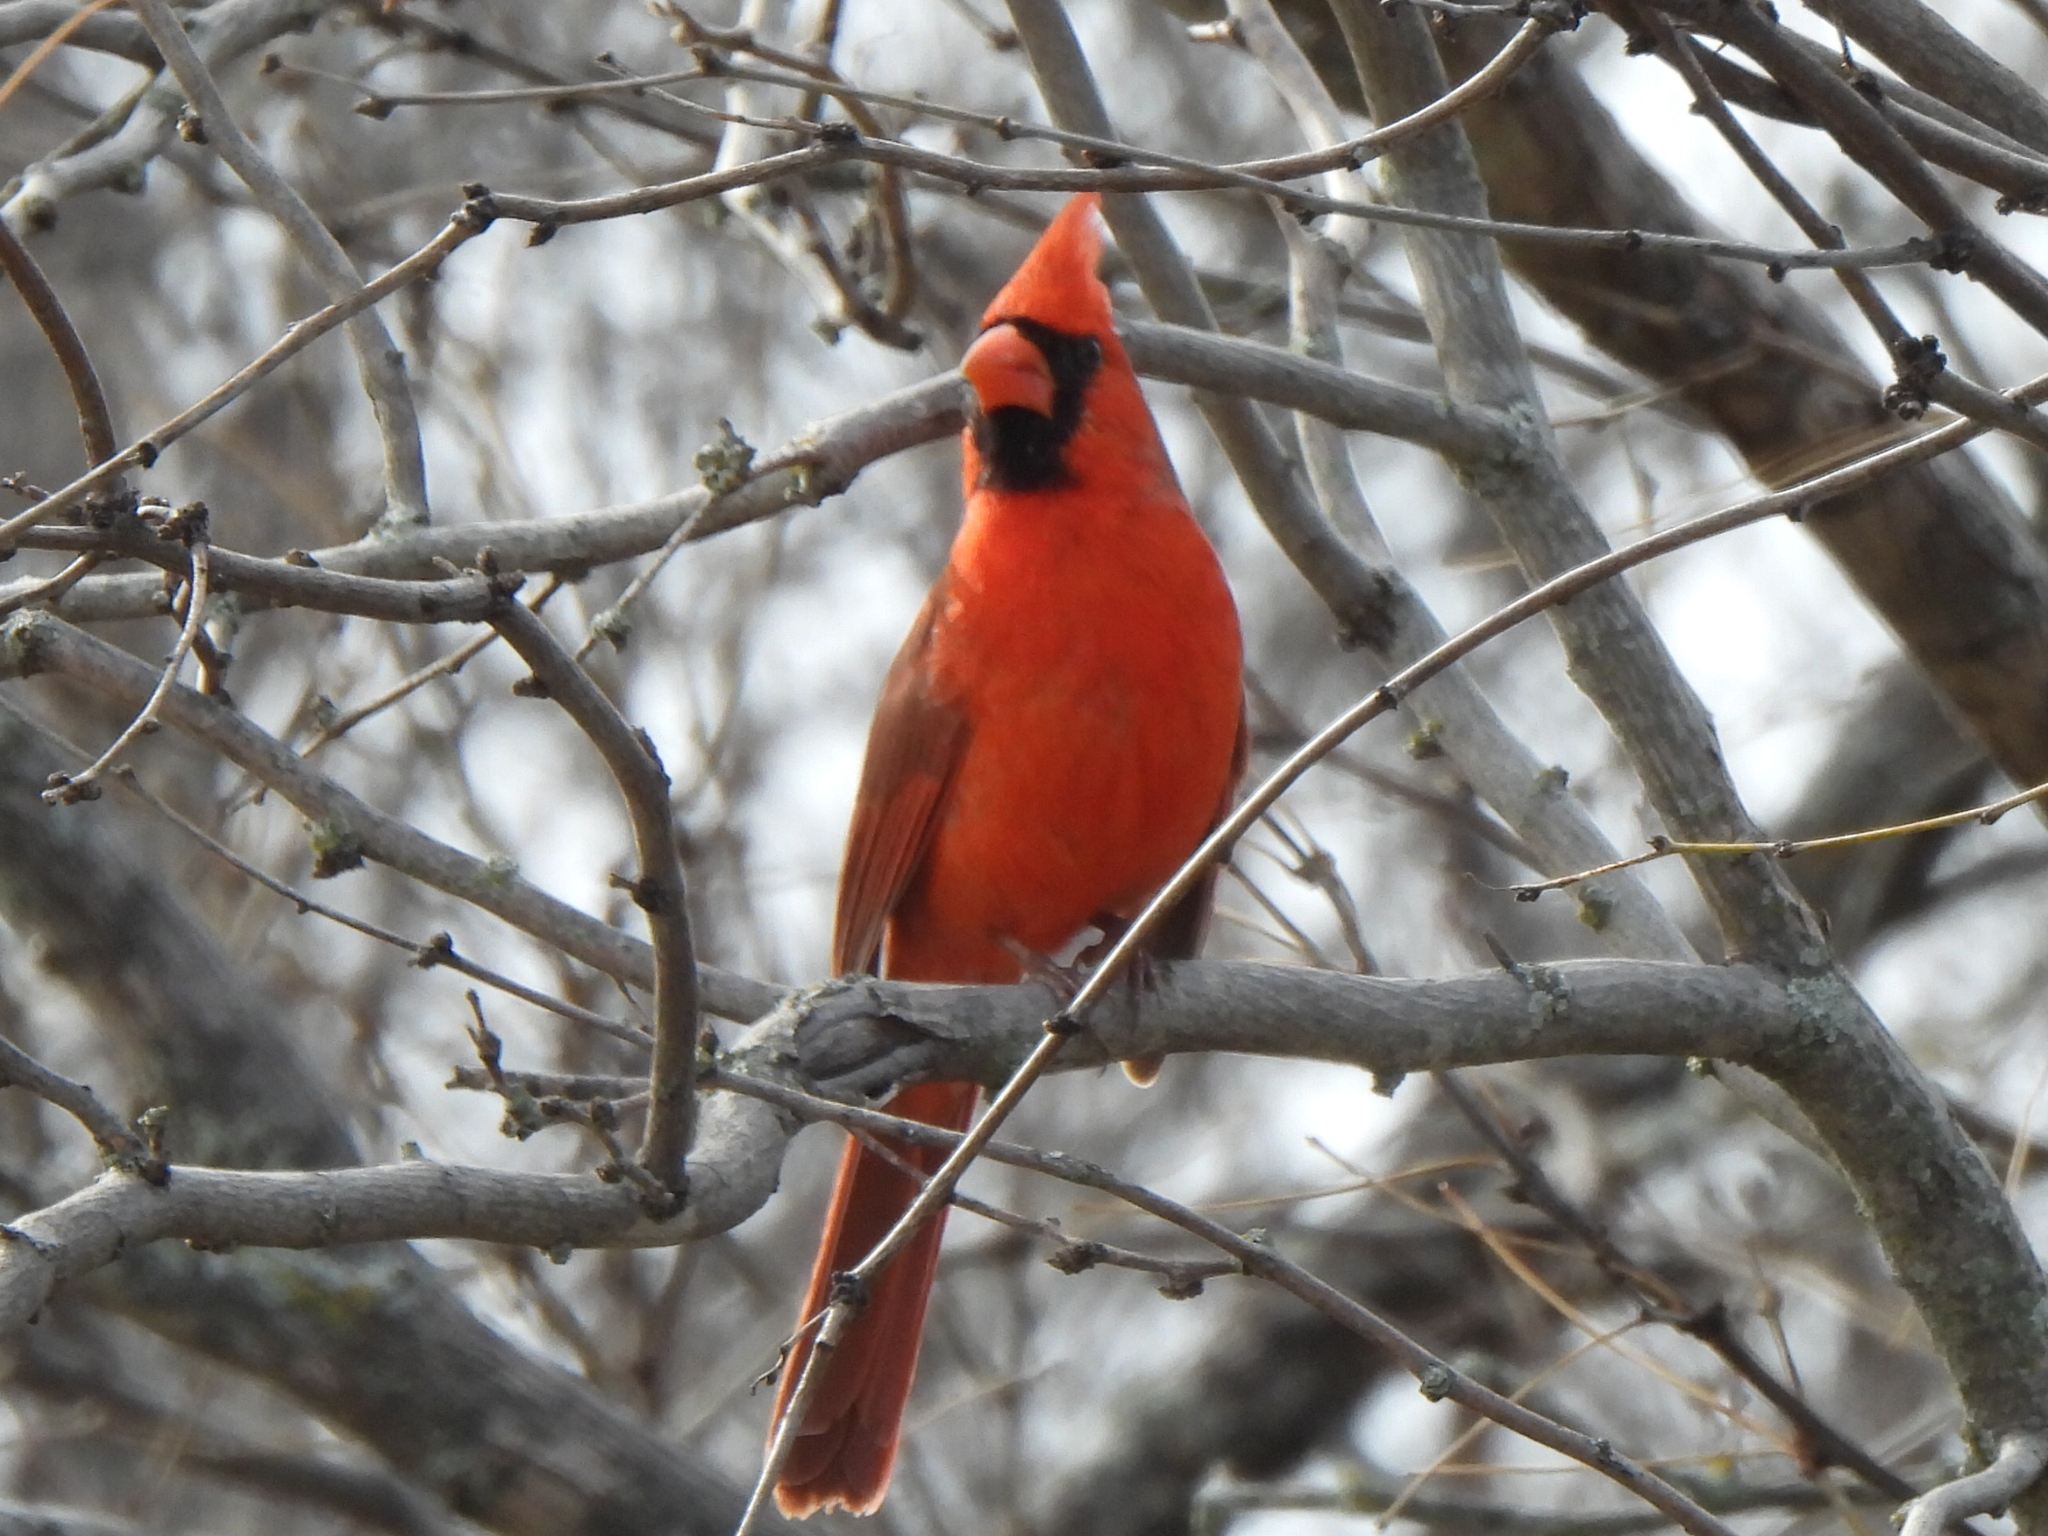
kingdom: Animalia
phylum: Chordata
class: Aves
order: Passeriformes
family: Cardinalidae
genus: Cardinalis
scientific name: Cardinalis cardinalis
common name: Northern cardinal
